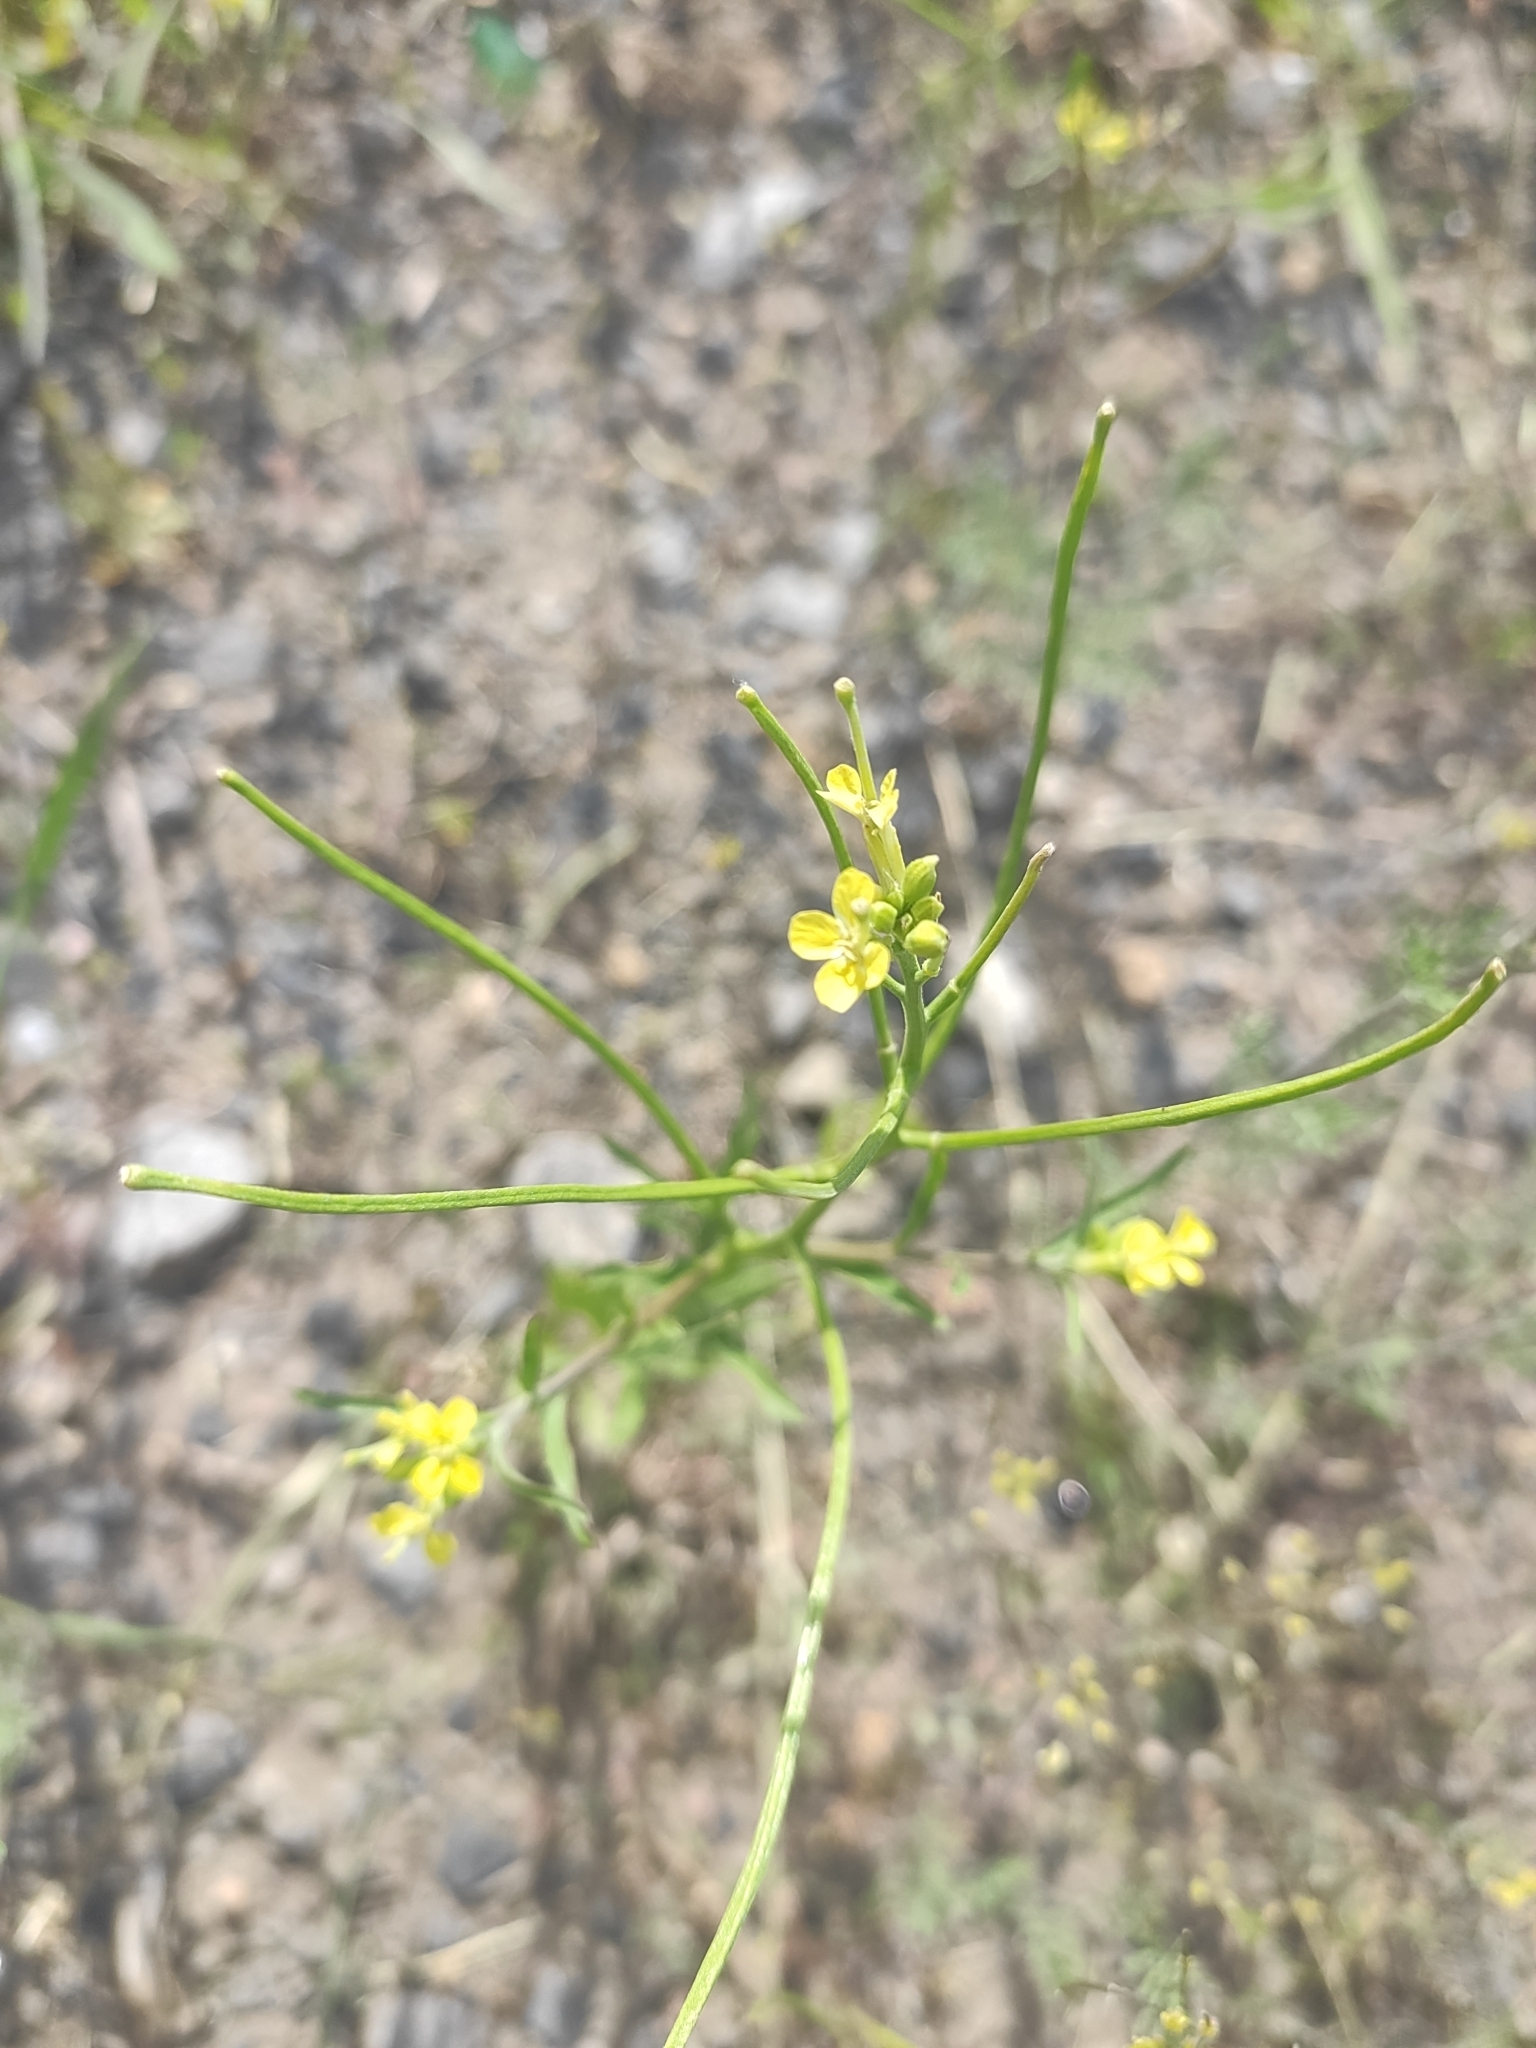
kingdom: Plantae
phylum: Tracheophyta
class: Magnoliopsida
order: Brassicales
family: Brassicaceae
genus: Erysimum
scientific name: Erysimum repandum
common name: Spreading wallflower
